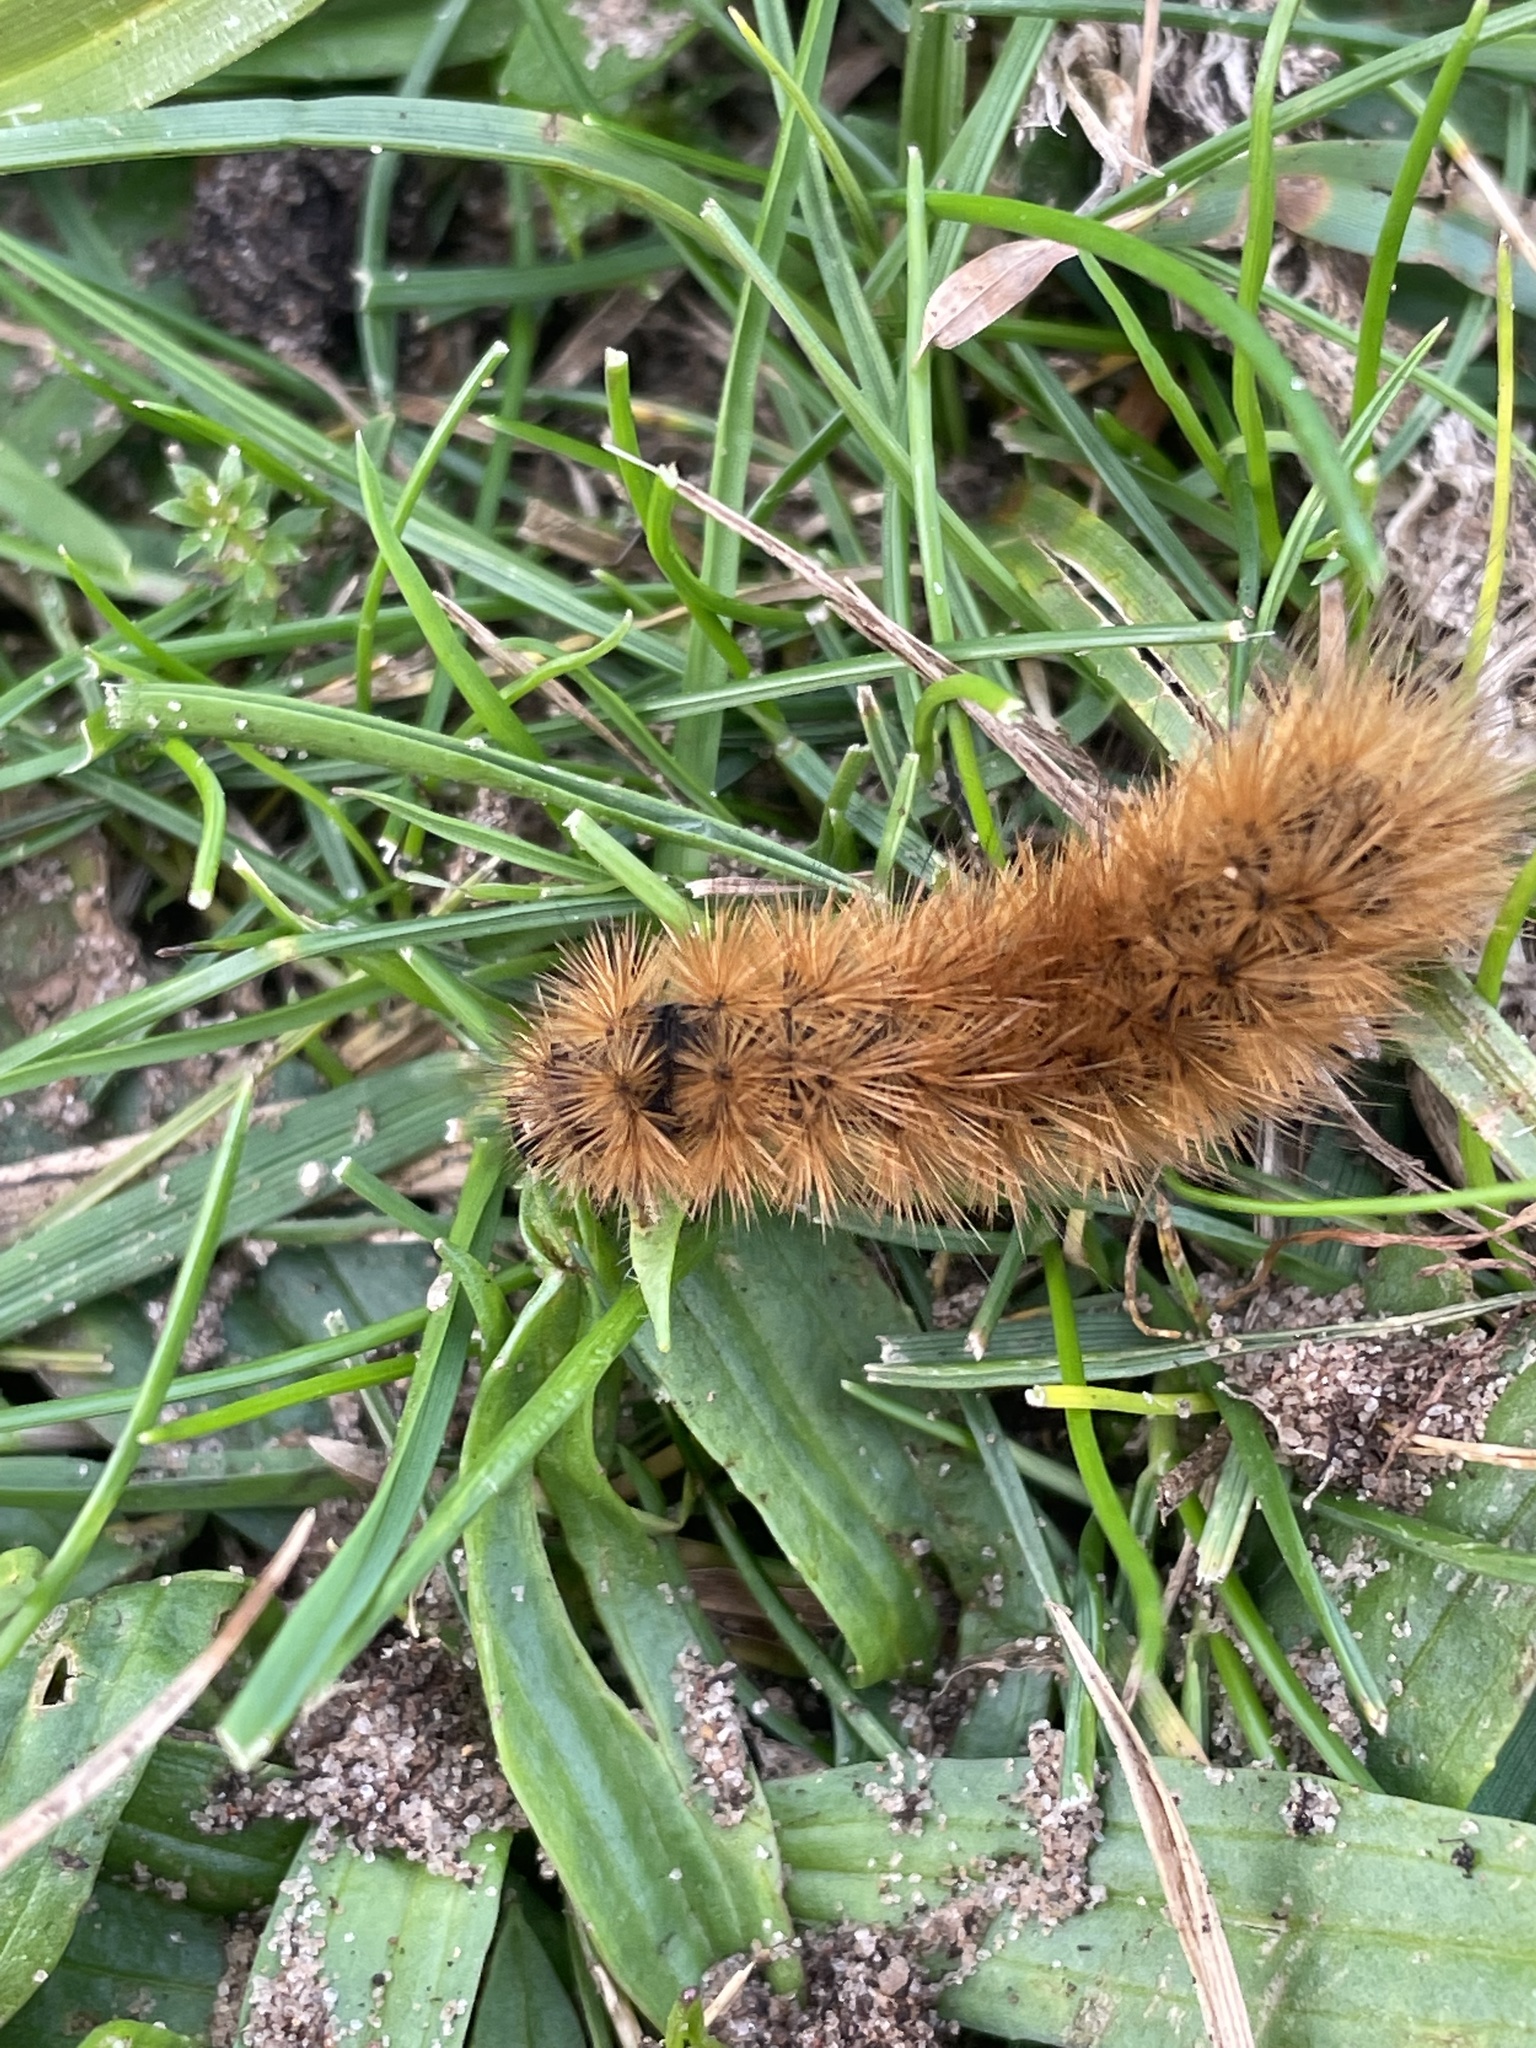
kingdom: Animalia
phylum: Arthropoda
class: Insecta
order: Lepidoptera
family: Erebidae
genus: Phragmatobia
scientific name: Phragmatobia fuliginosa
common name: Ruby tiger
